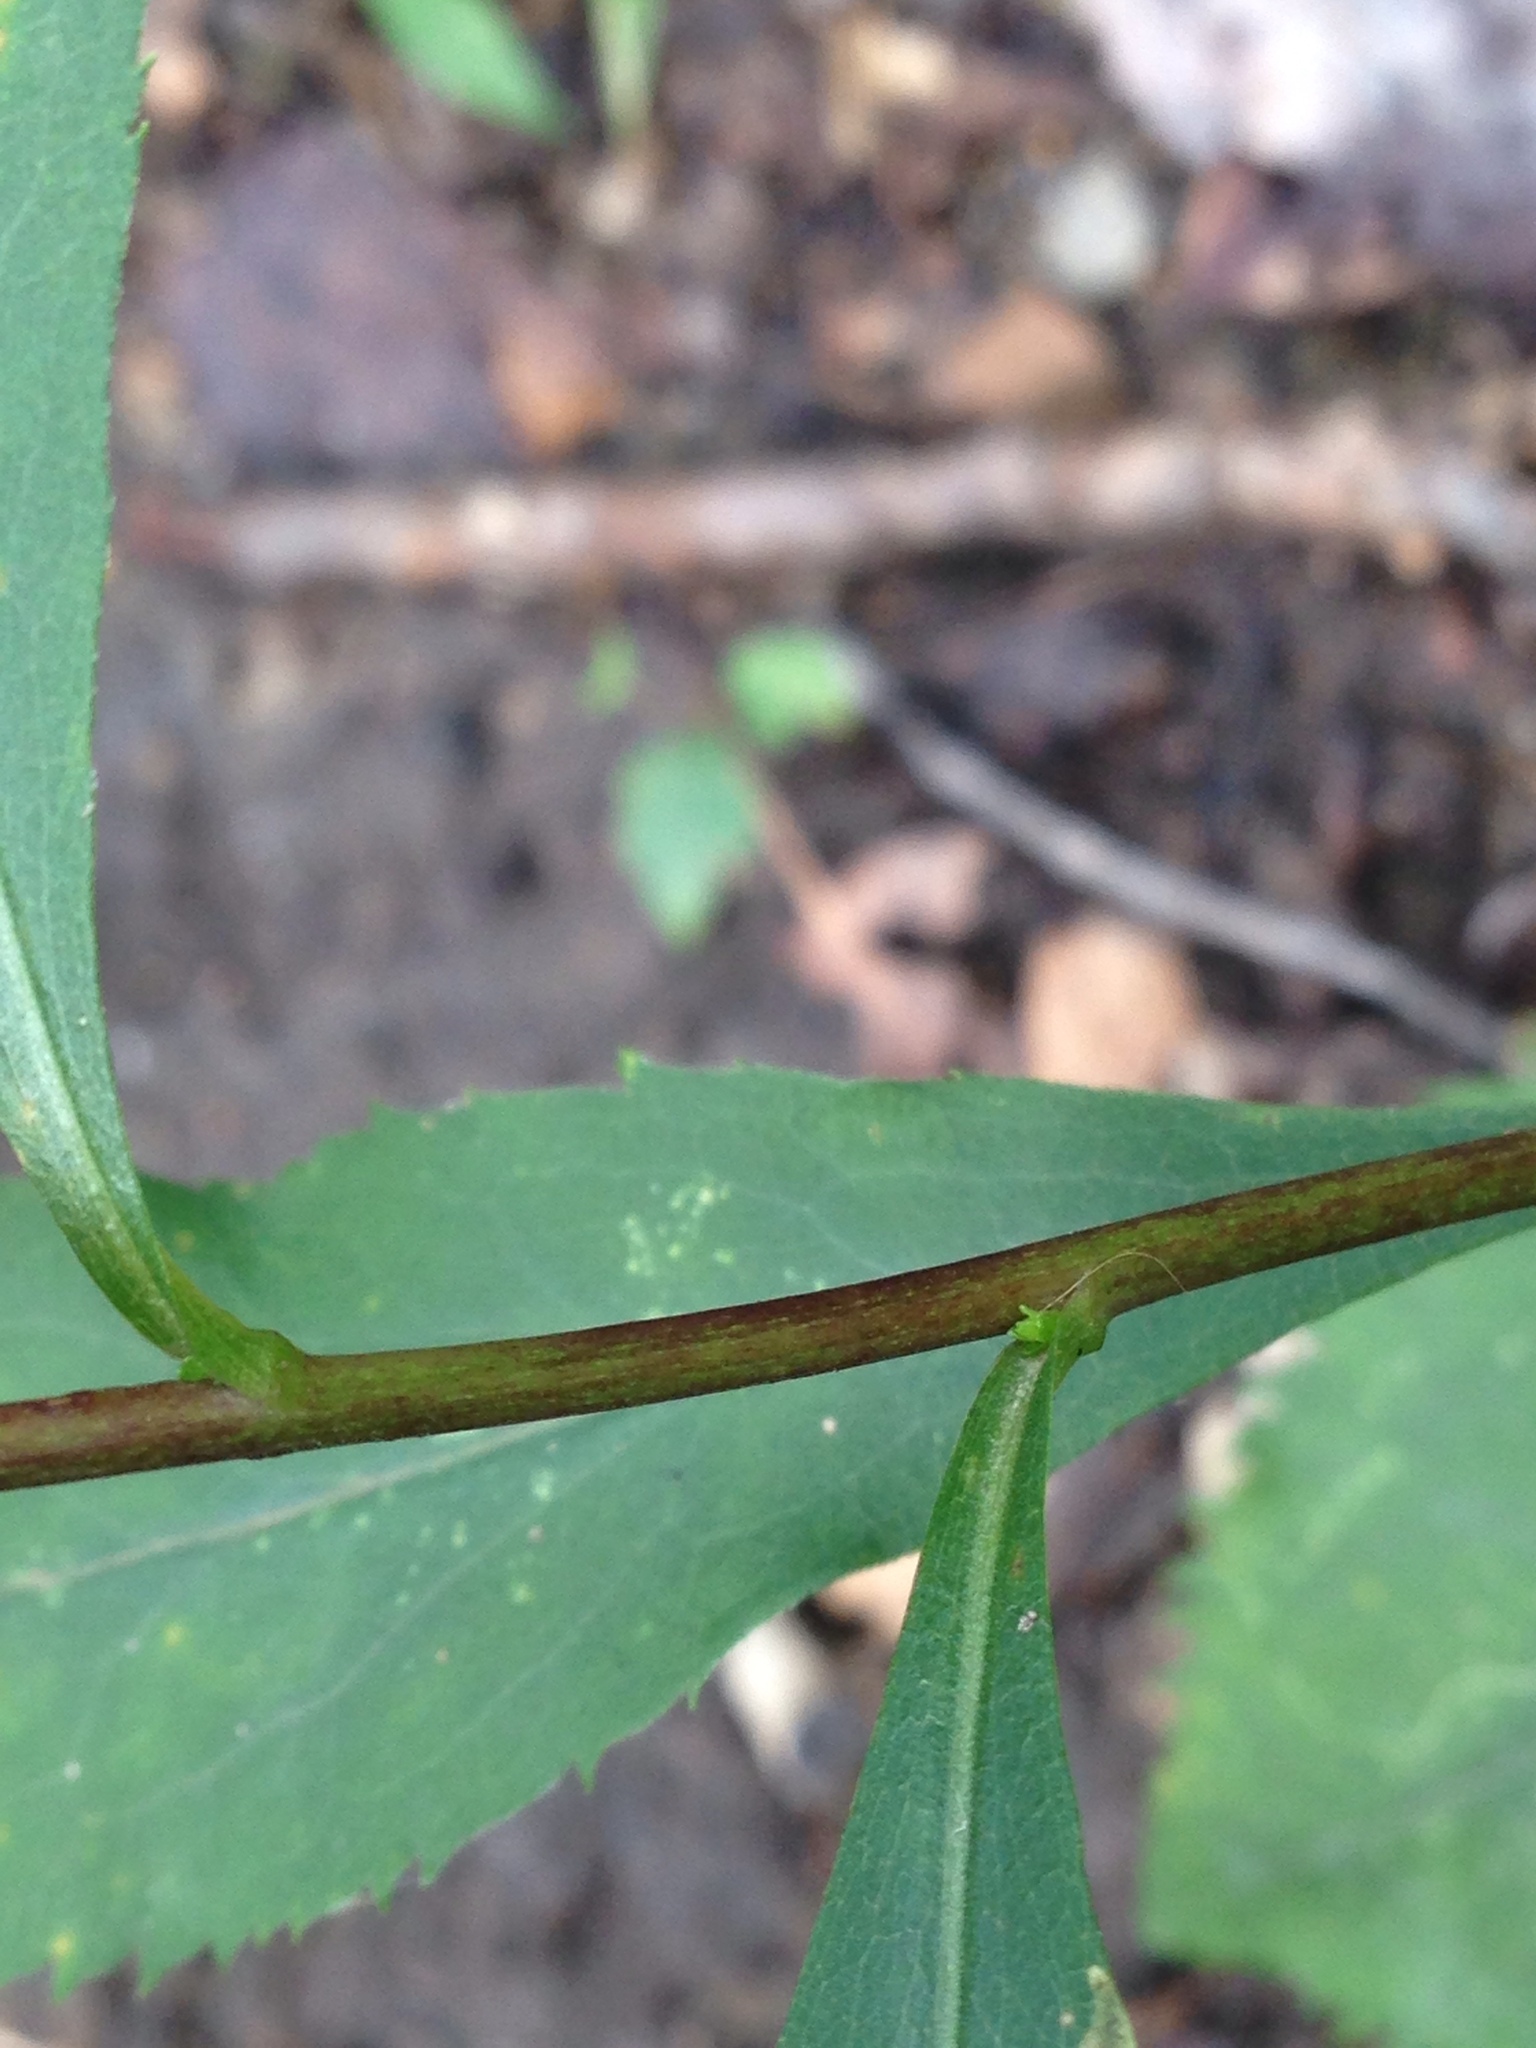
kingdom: Plantae
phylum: Tracheophyta
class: Magnoliopsida
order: Asterales
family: Asteraceae
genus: Solidago
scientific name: Solidago arguta
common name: Atlantic goldenrod
